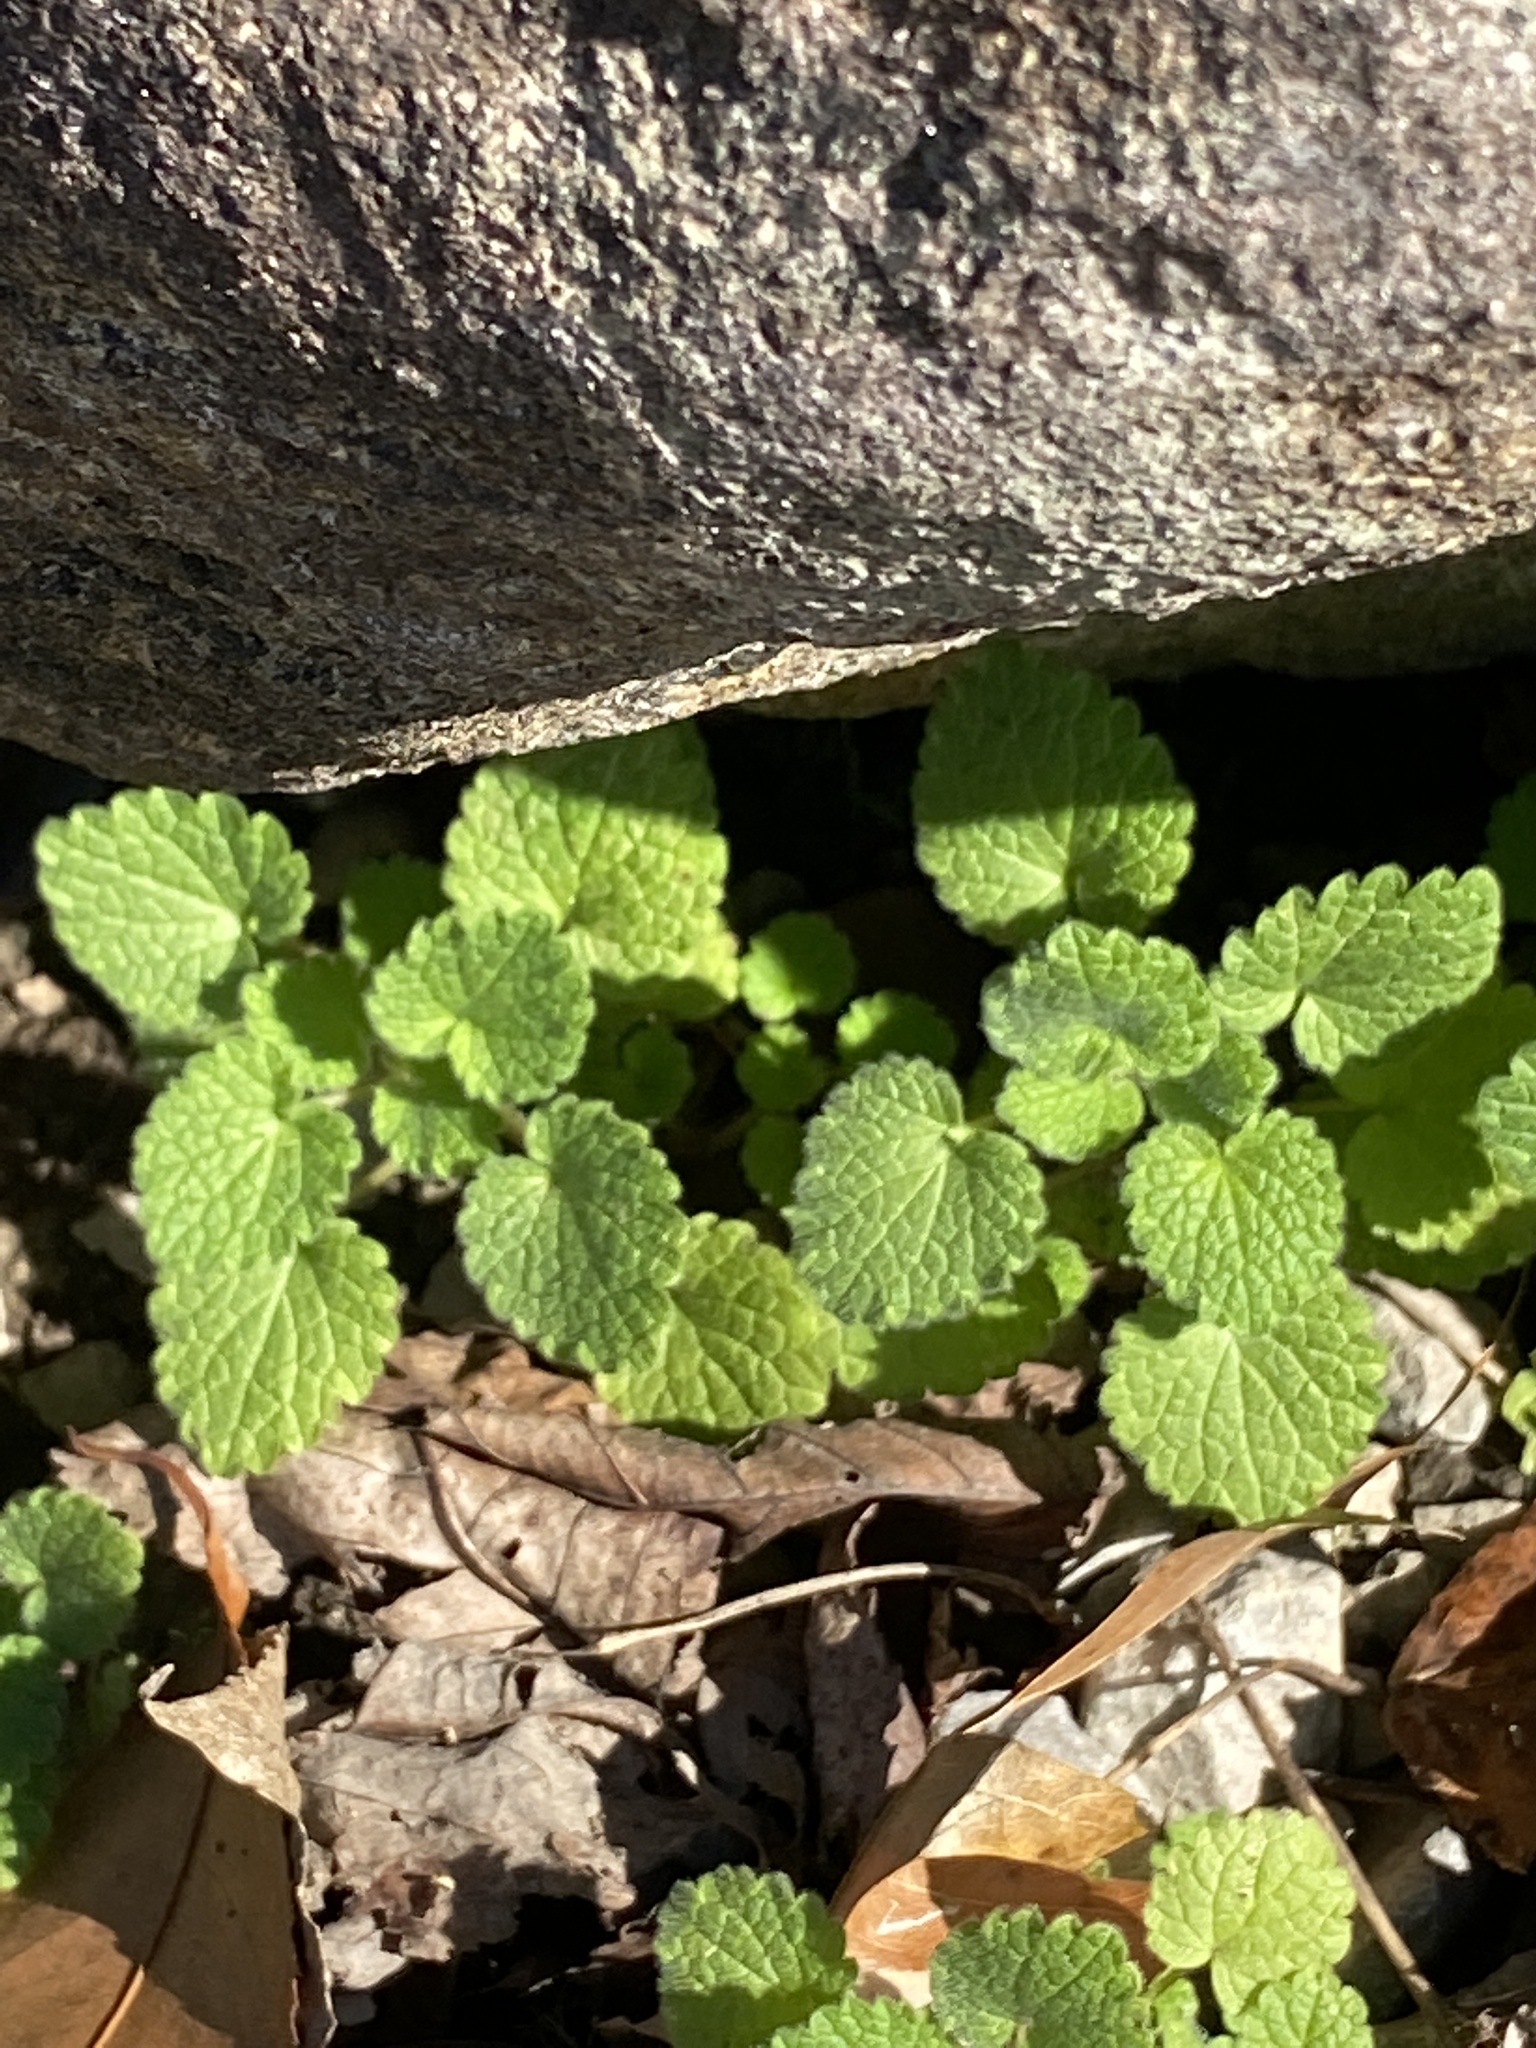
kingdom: Plantae
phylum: Tracheophyta
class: Magnoliopsida
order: Lamiales
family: Lamiaceae
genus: Lamium
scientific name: Lamium purpureum
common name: Red dead-nettle
